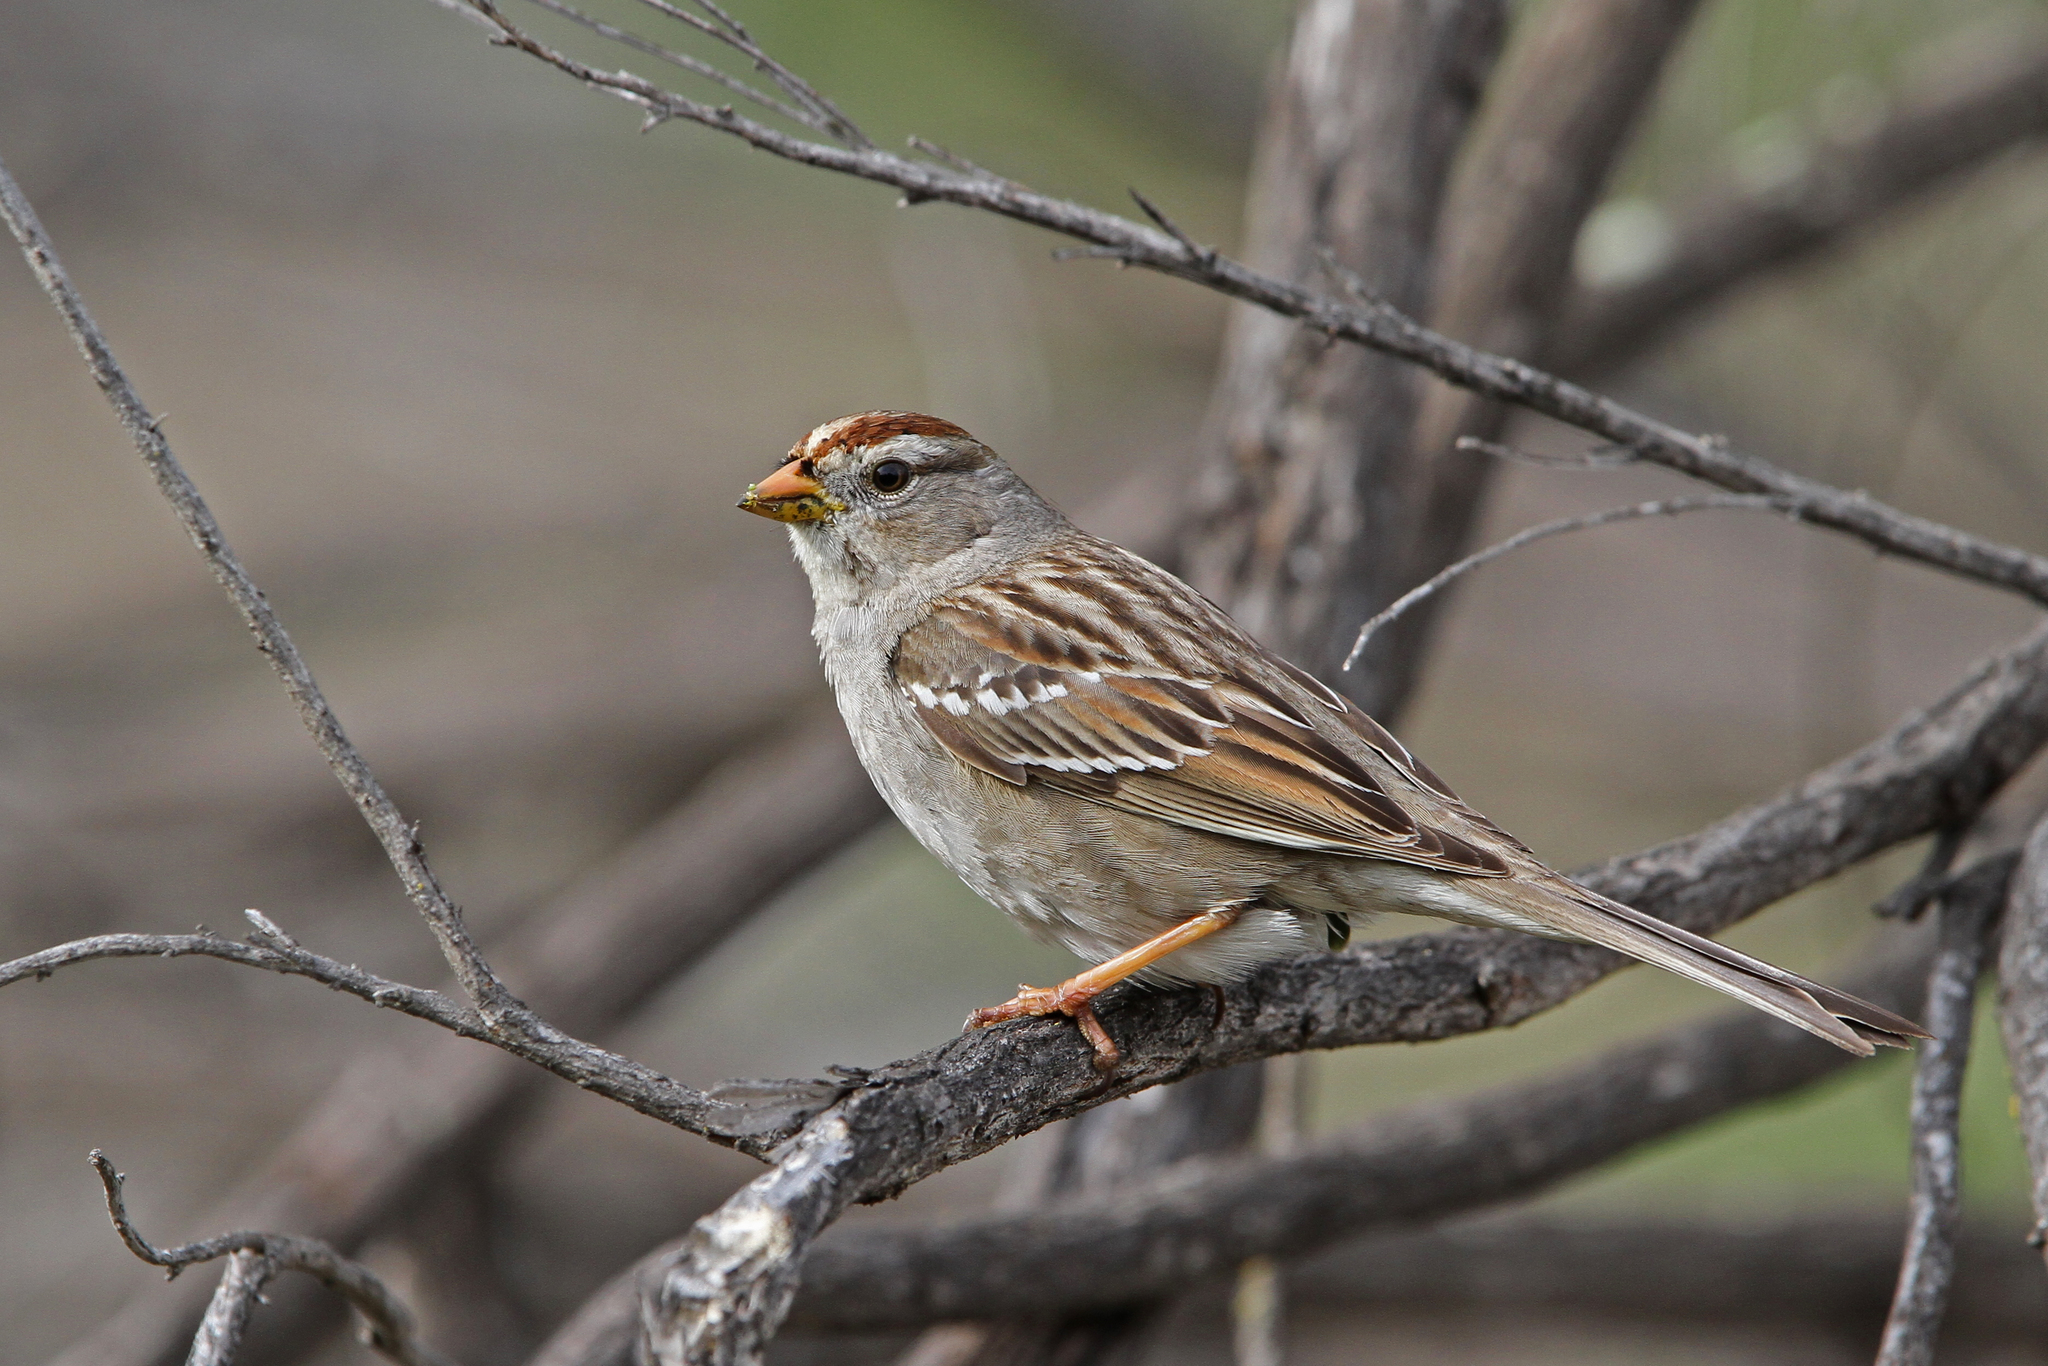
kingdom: Animalia
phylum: Chordata
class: Aves
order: Passeriformes
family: Passerellidae
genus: Zonotrichia
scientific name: Zonotrichia leucophrys
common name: White-crowned sparrow
